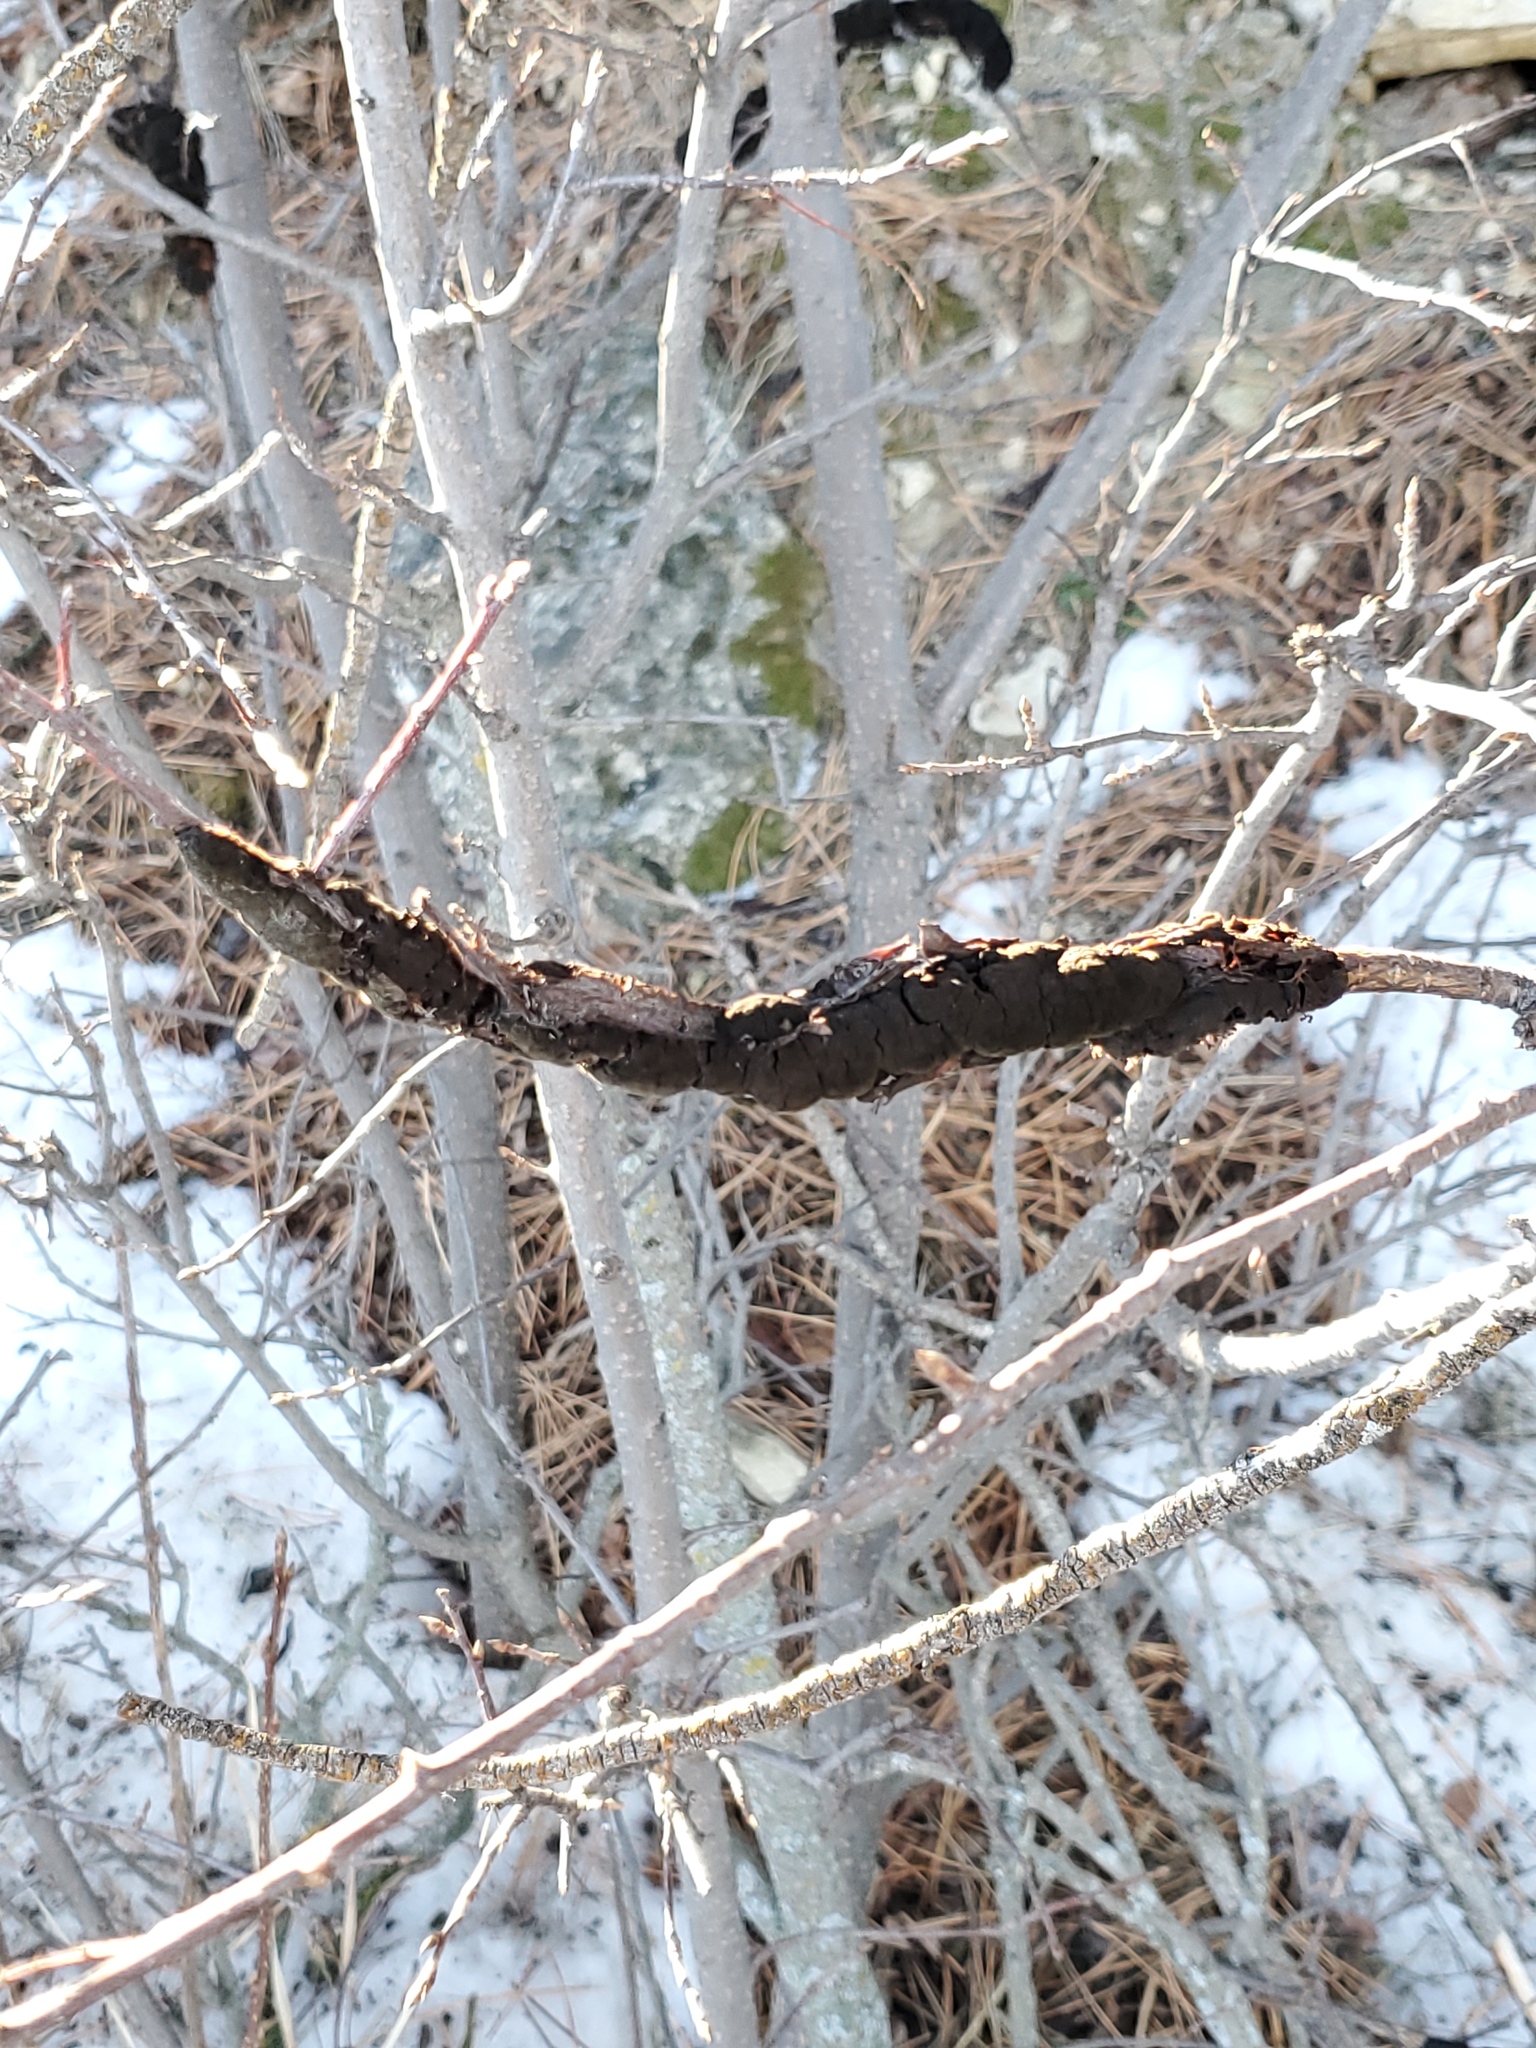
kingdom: Fungi
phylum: Ascomycota
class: Dothideomycetes
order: Venturiales
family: Venturiaceae
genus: Apiosporina
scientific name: Apiosporina morbosa
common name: Black knot
